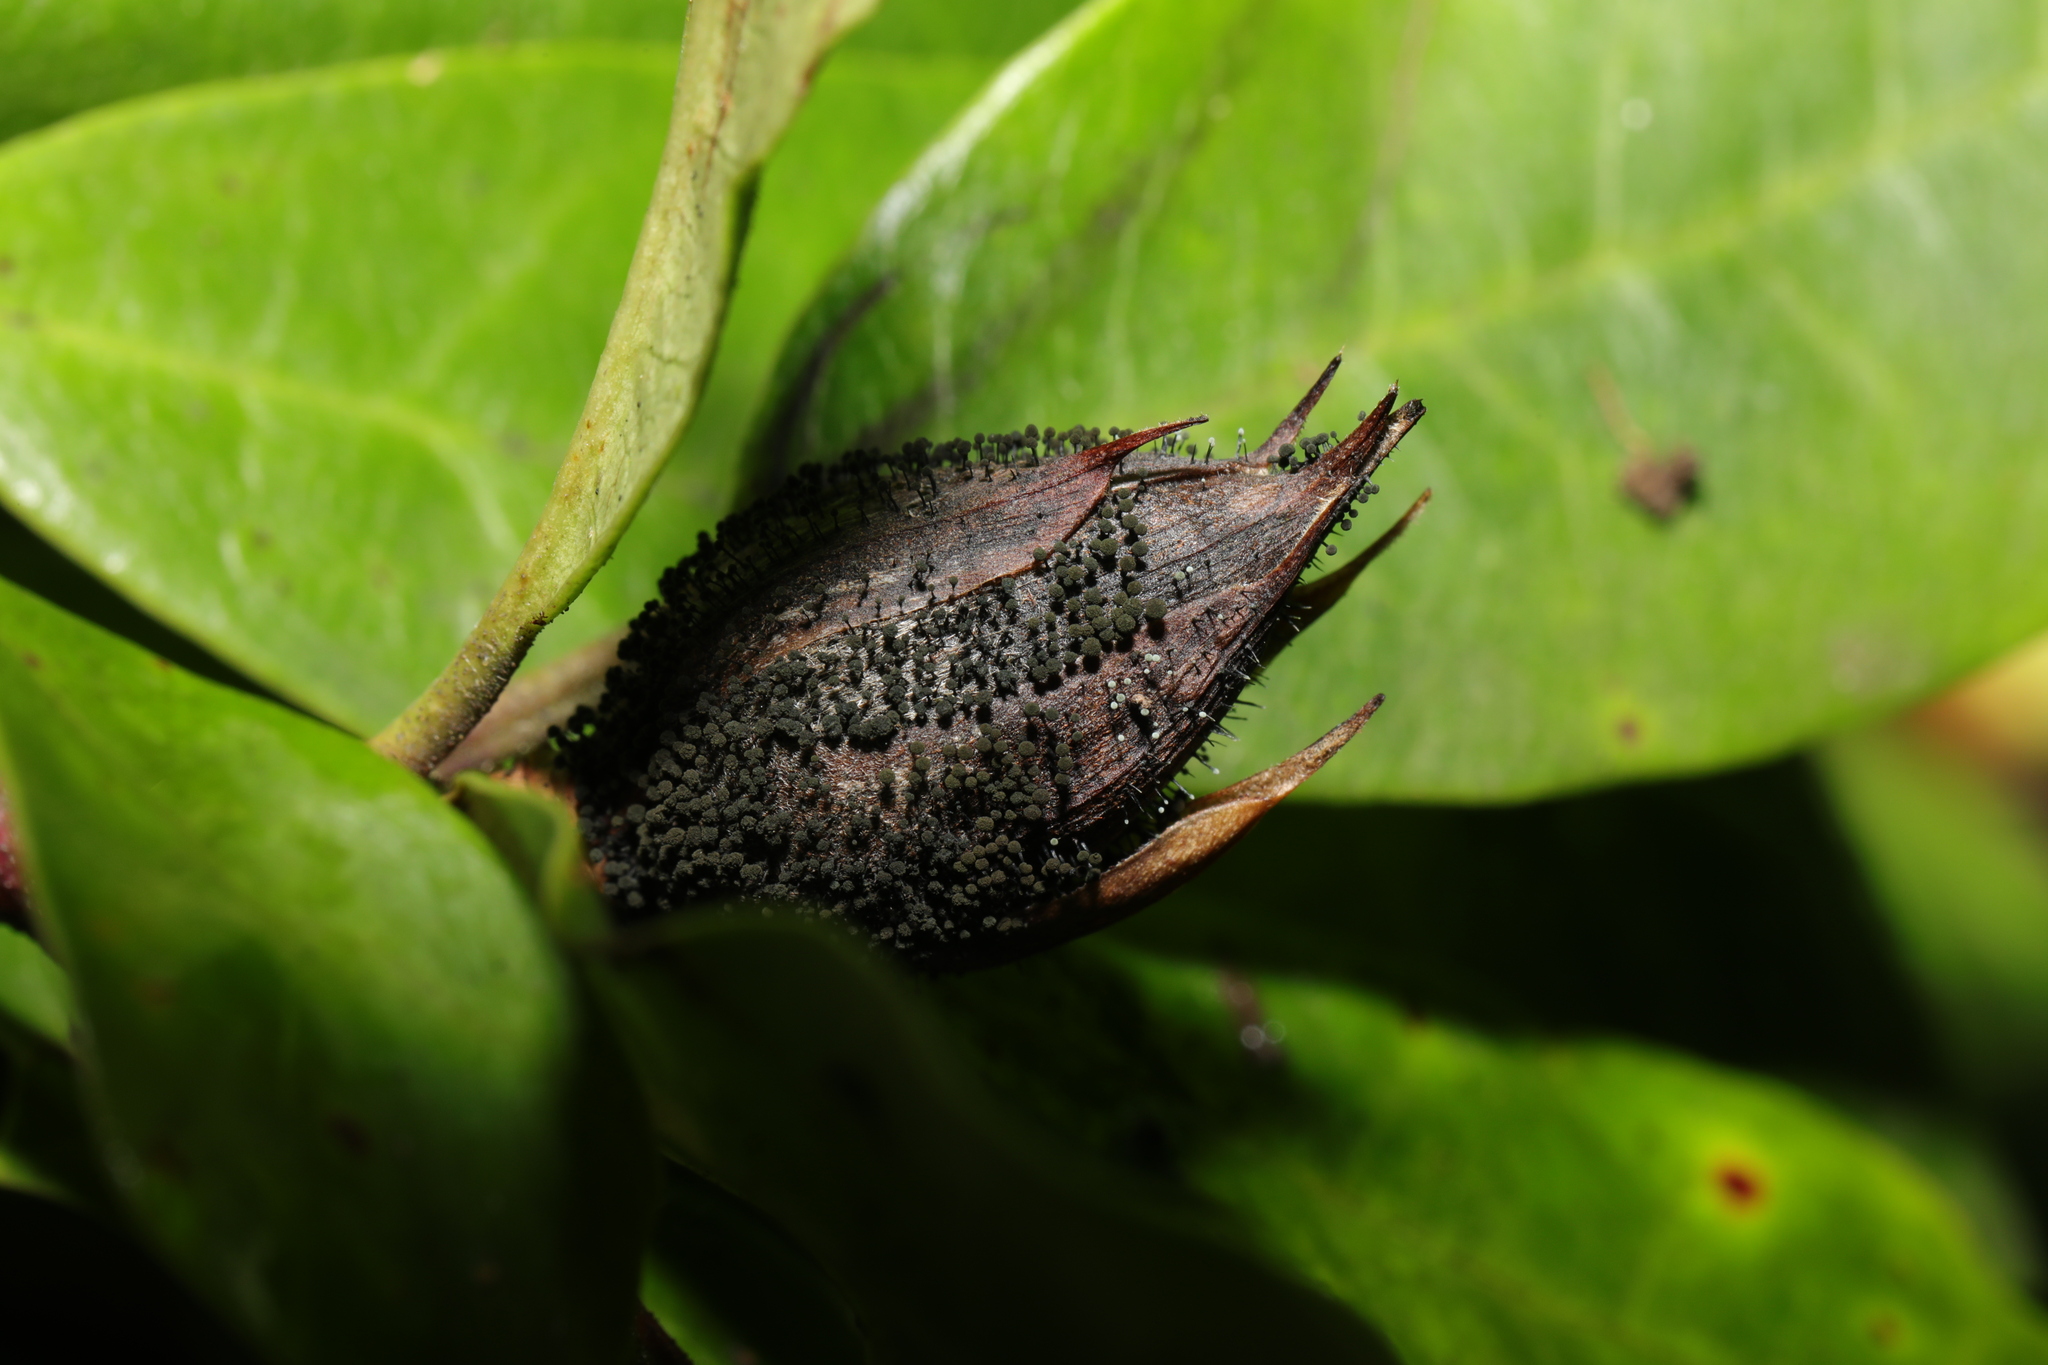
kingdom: Fungi
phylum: Ascomycota
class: Dothideomycetes
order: Pleosporales
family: Melanommataceae
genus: Seifertia
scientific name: Seifertia azaleae
